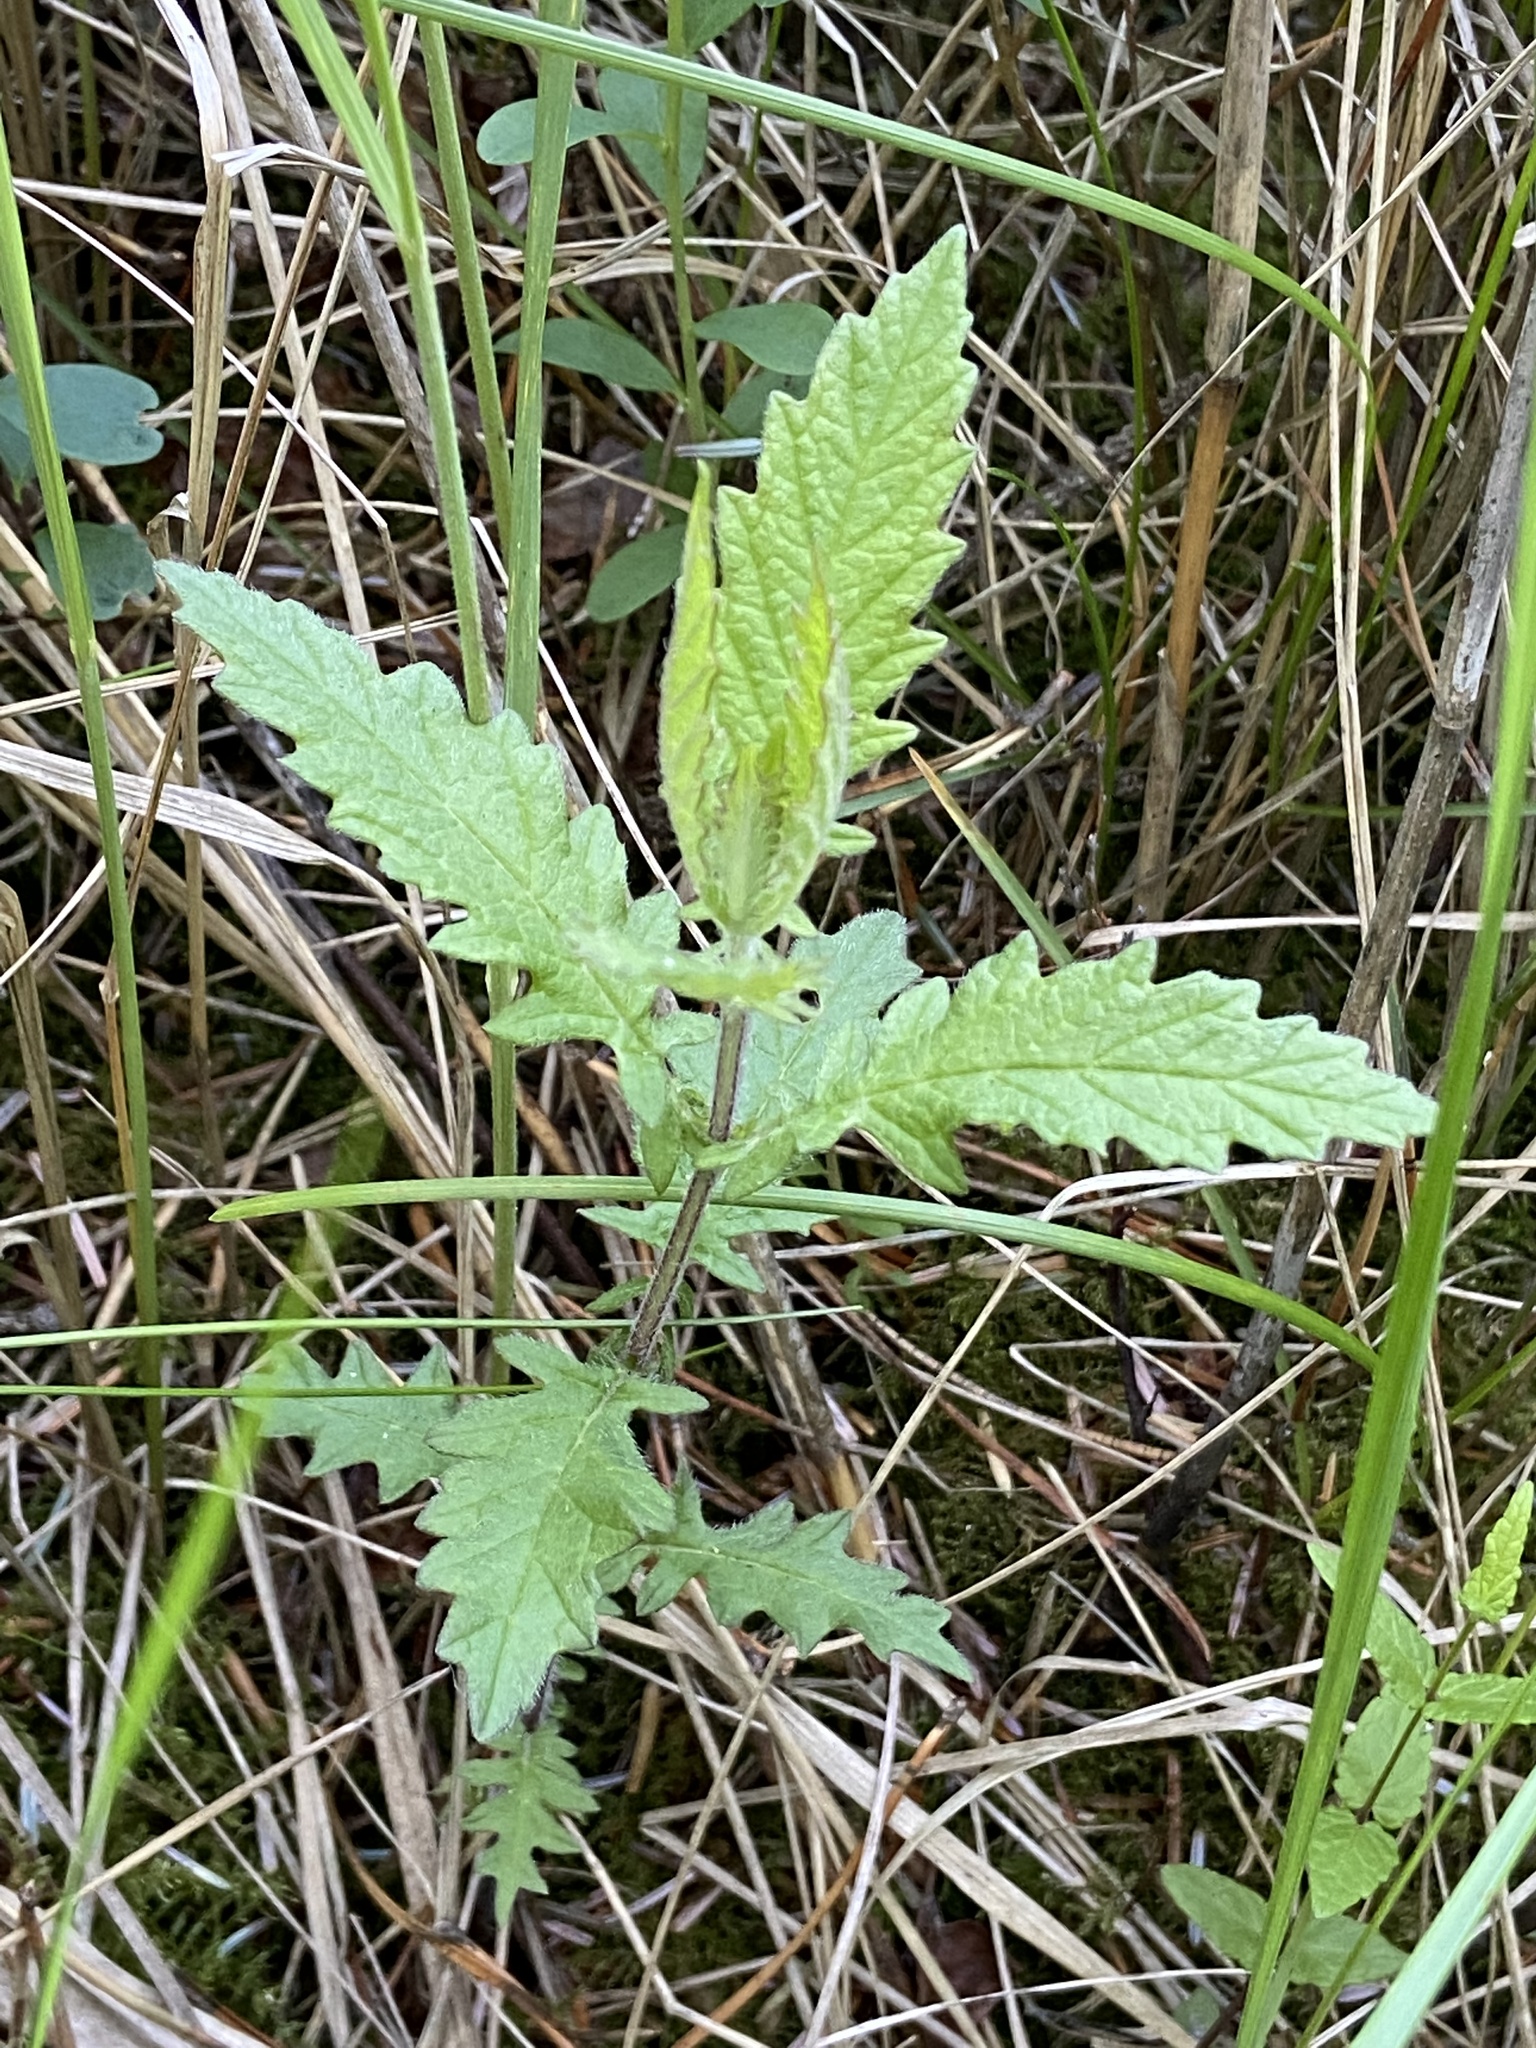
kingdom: Plantae
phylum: Tracheophyta
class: Magnoliopsida
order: Lamiales
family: Lamiaceae
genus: Lycopus
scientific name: Lycopus europaeus
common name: European bugleweed
